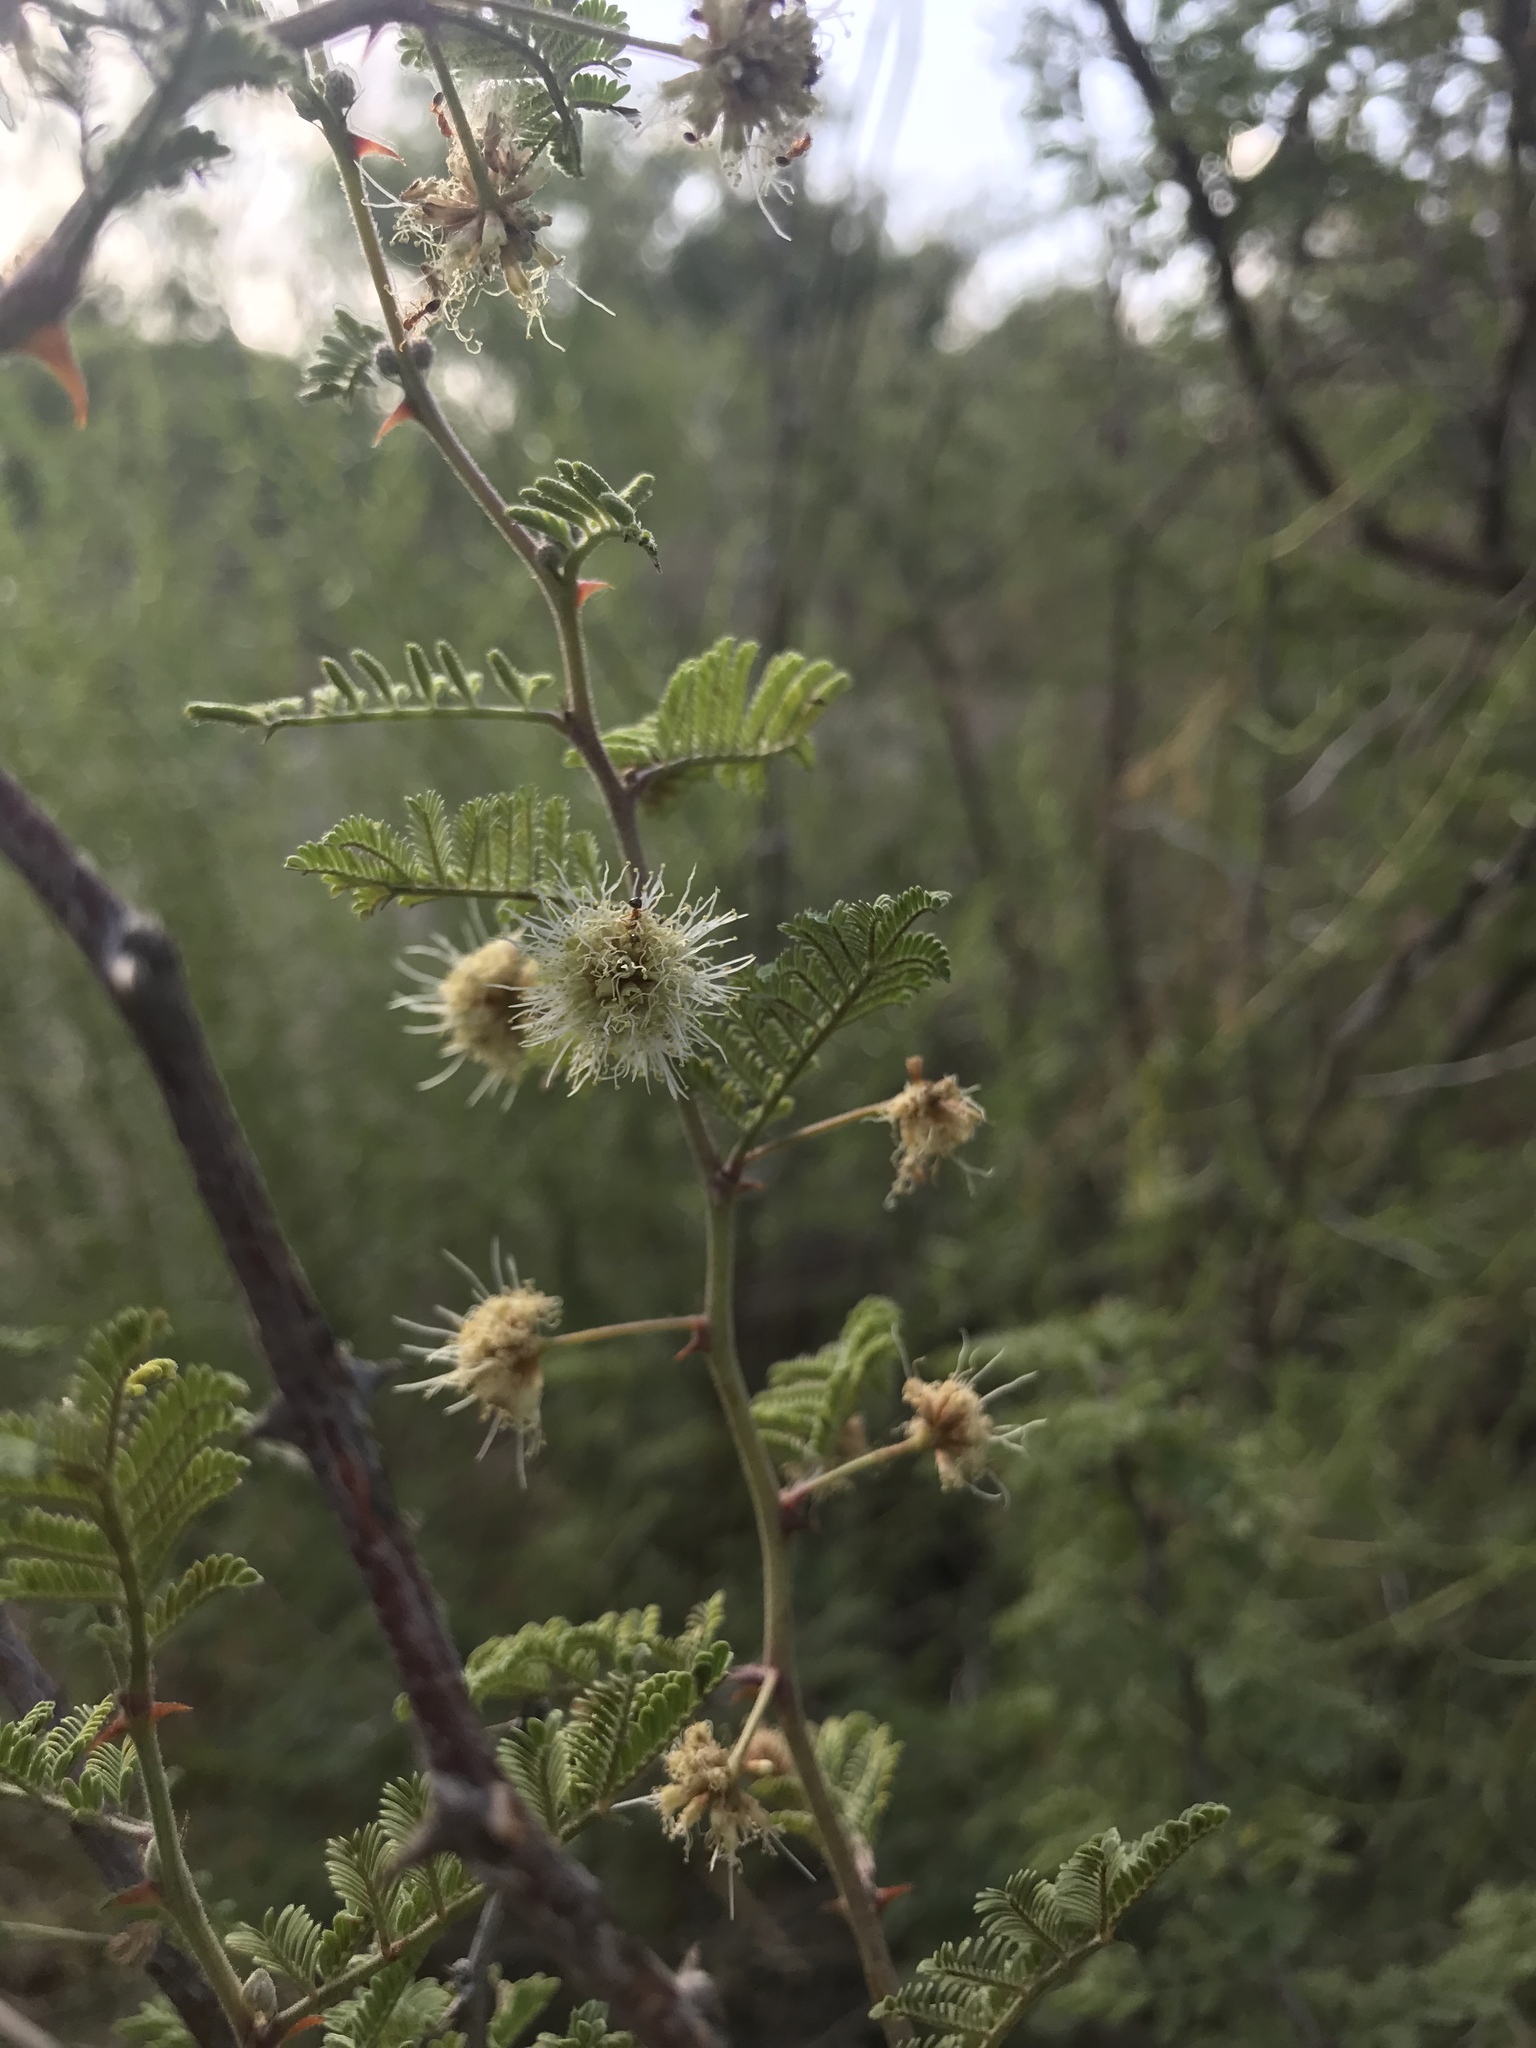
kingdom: Plantae
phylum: Tracheophyta
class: Magnoliopsida
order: Fabales
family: Fabaceae
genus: Mimosa
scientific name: Mimosa aculeaticarpa
